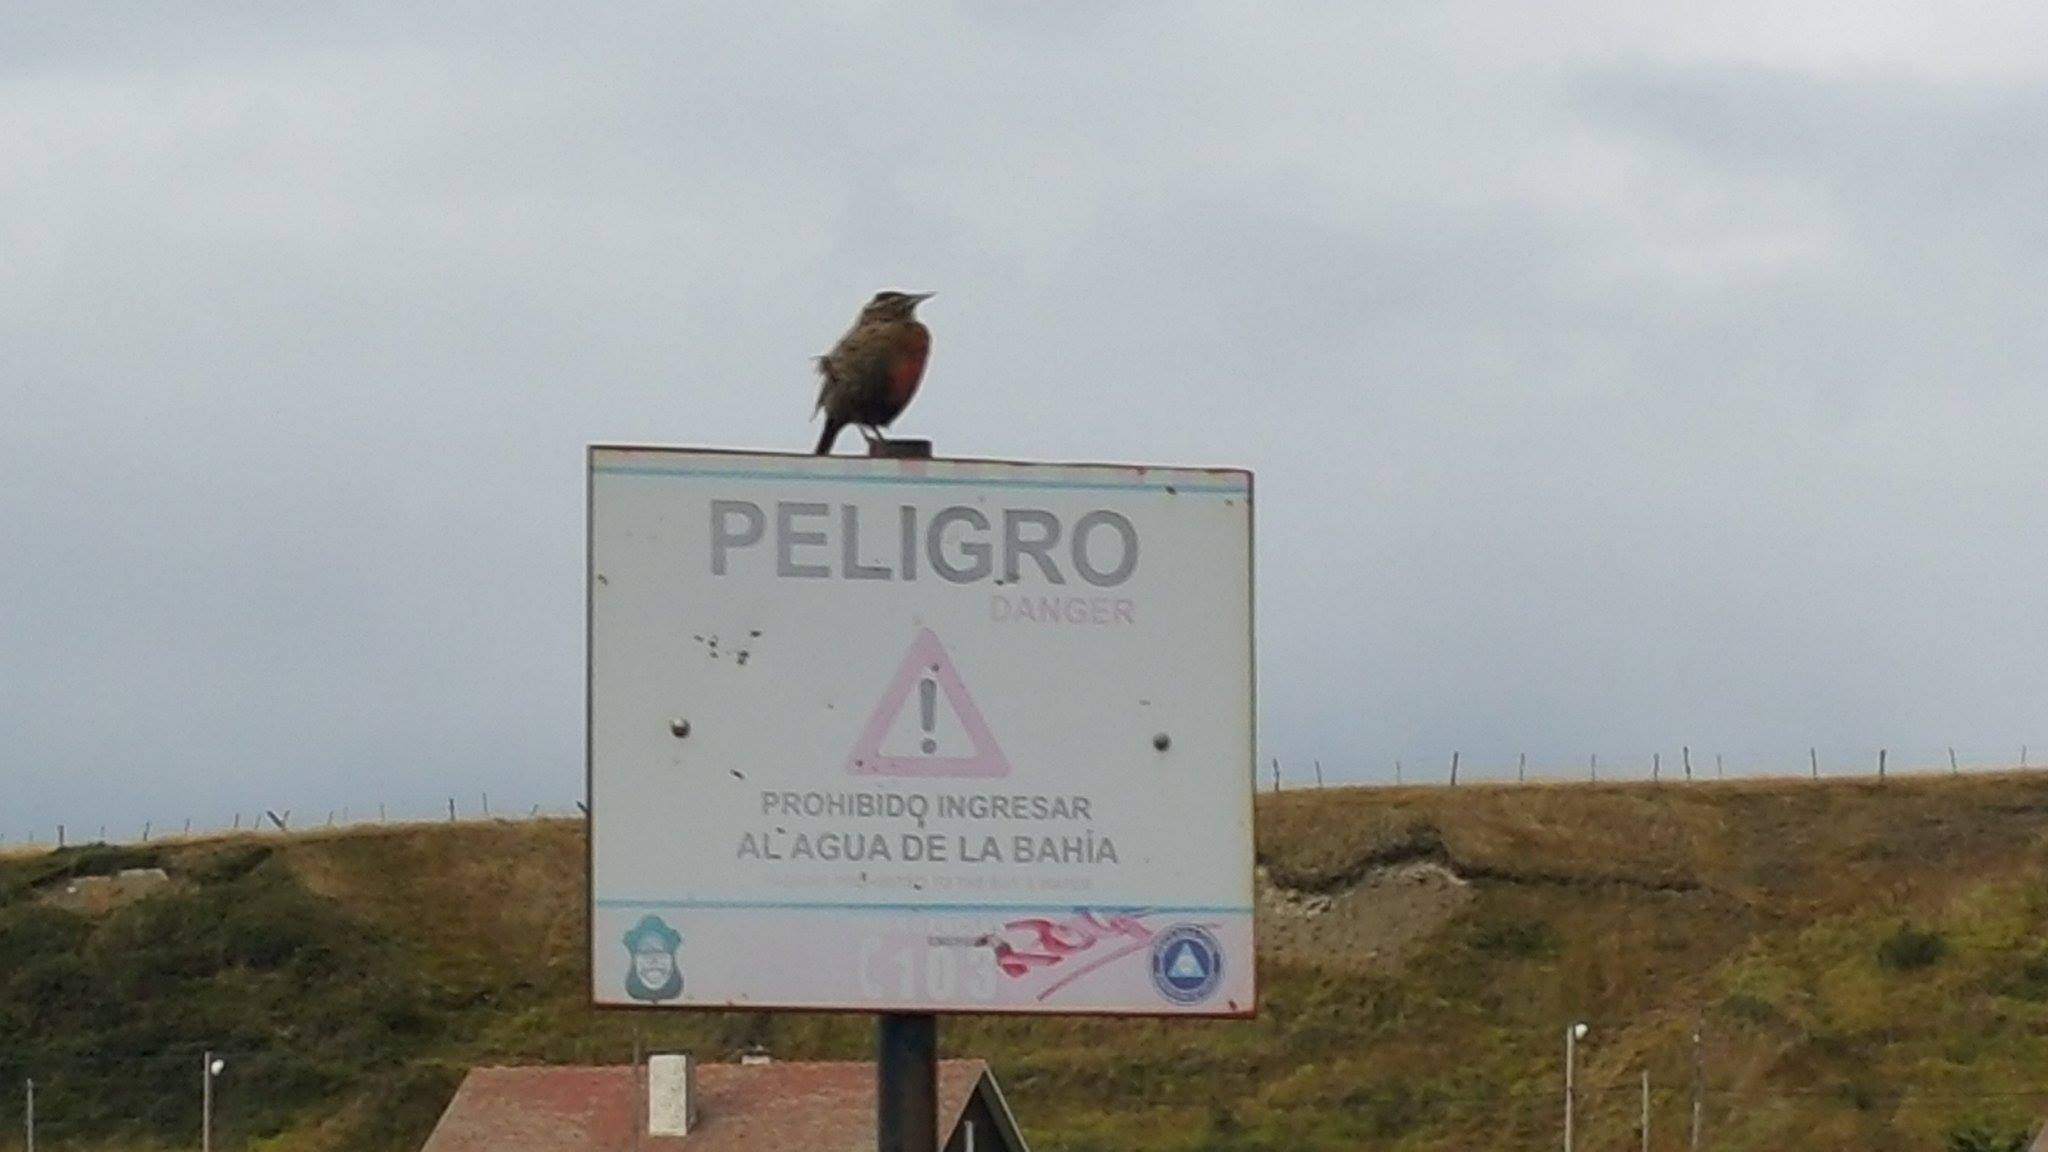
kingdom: Animalia
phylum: Chordata
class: Aves
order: Passeriformes
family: Icteridae
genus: Sturnella
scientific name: Sturnella loyca
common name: Long-tailed meadowlark
